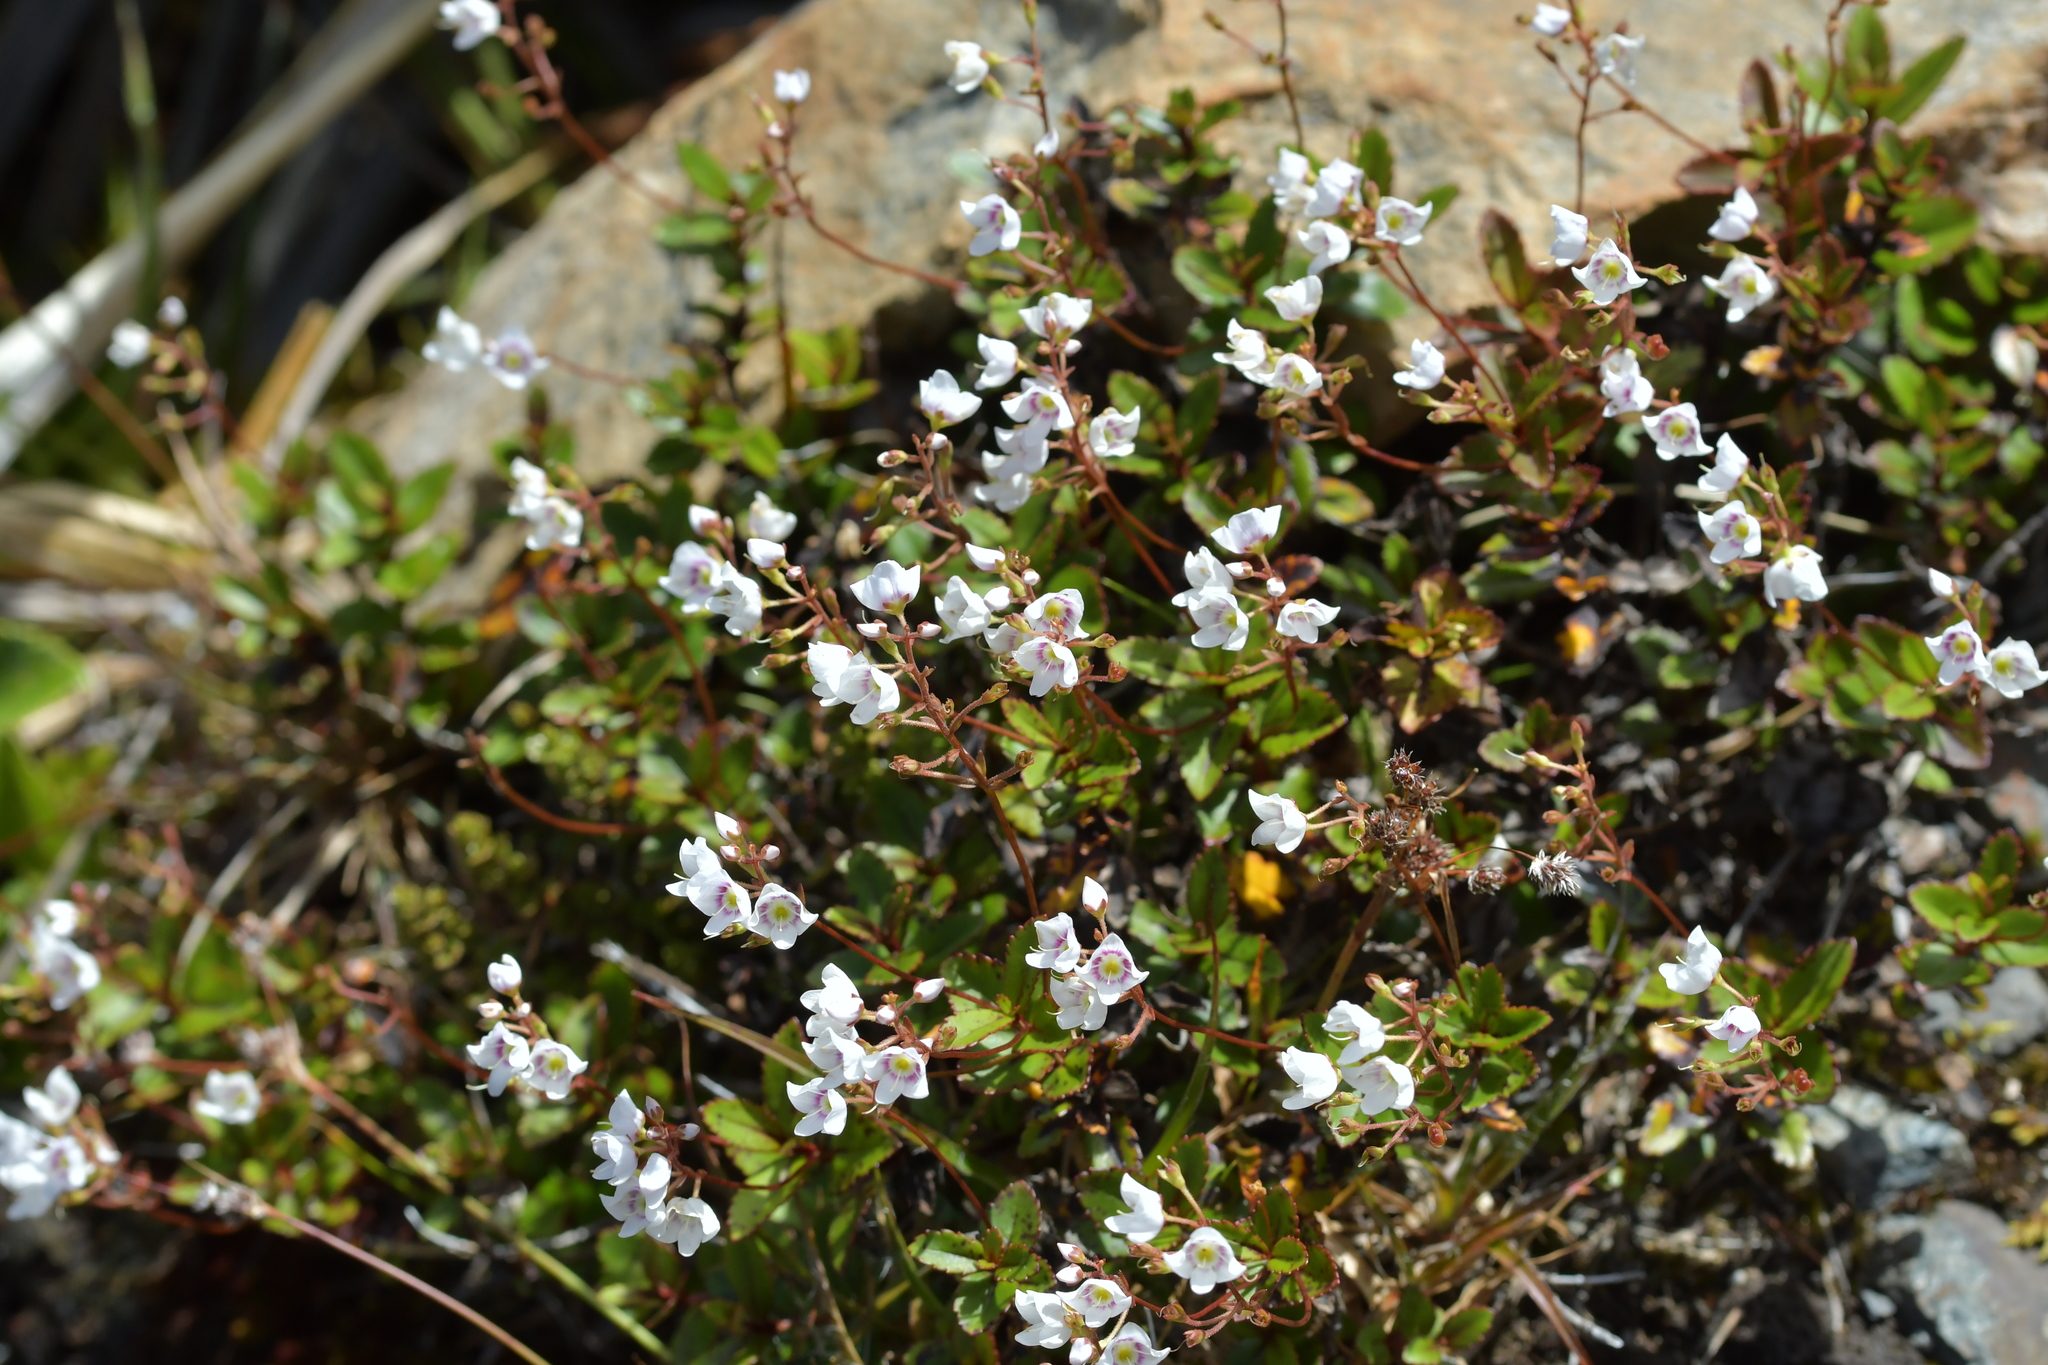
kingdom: Plantae
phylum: Tracheophyta
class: Magnoliopsida
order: Lamiales
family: Plantaginaceae
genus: Veronica
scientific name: Veronica lanceolata
